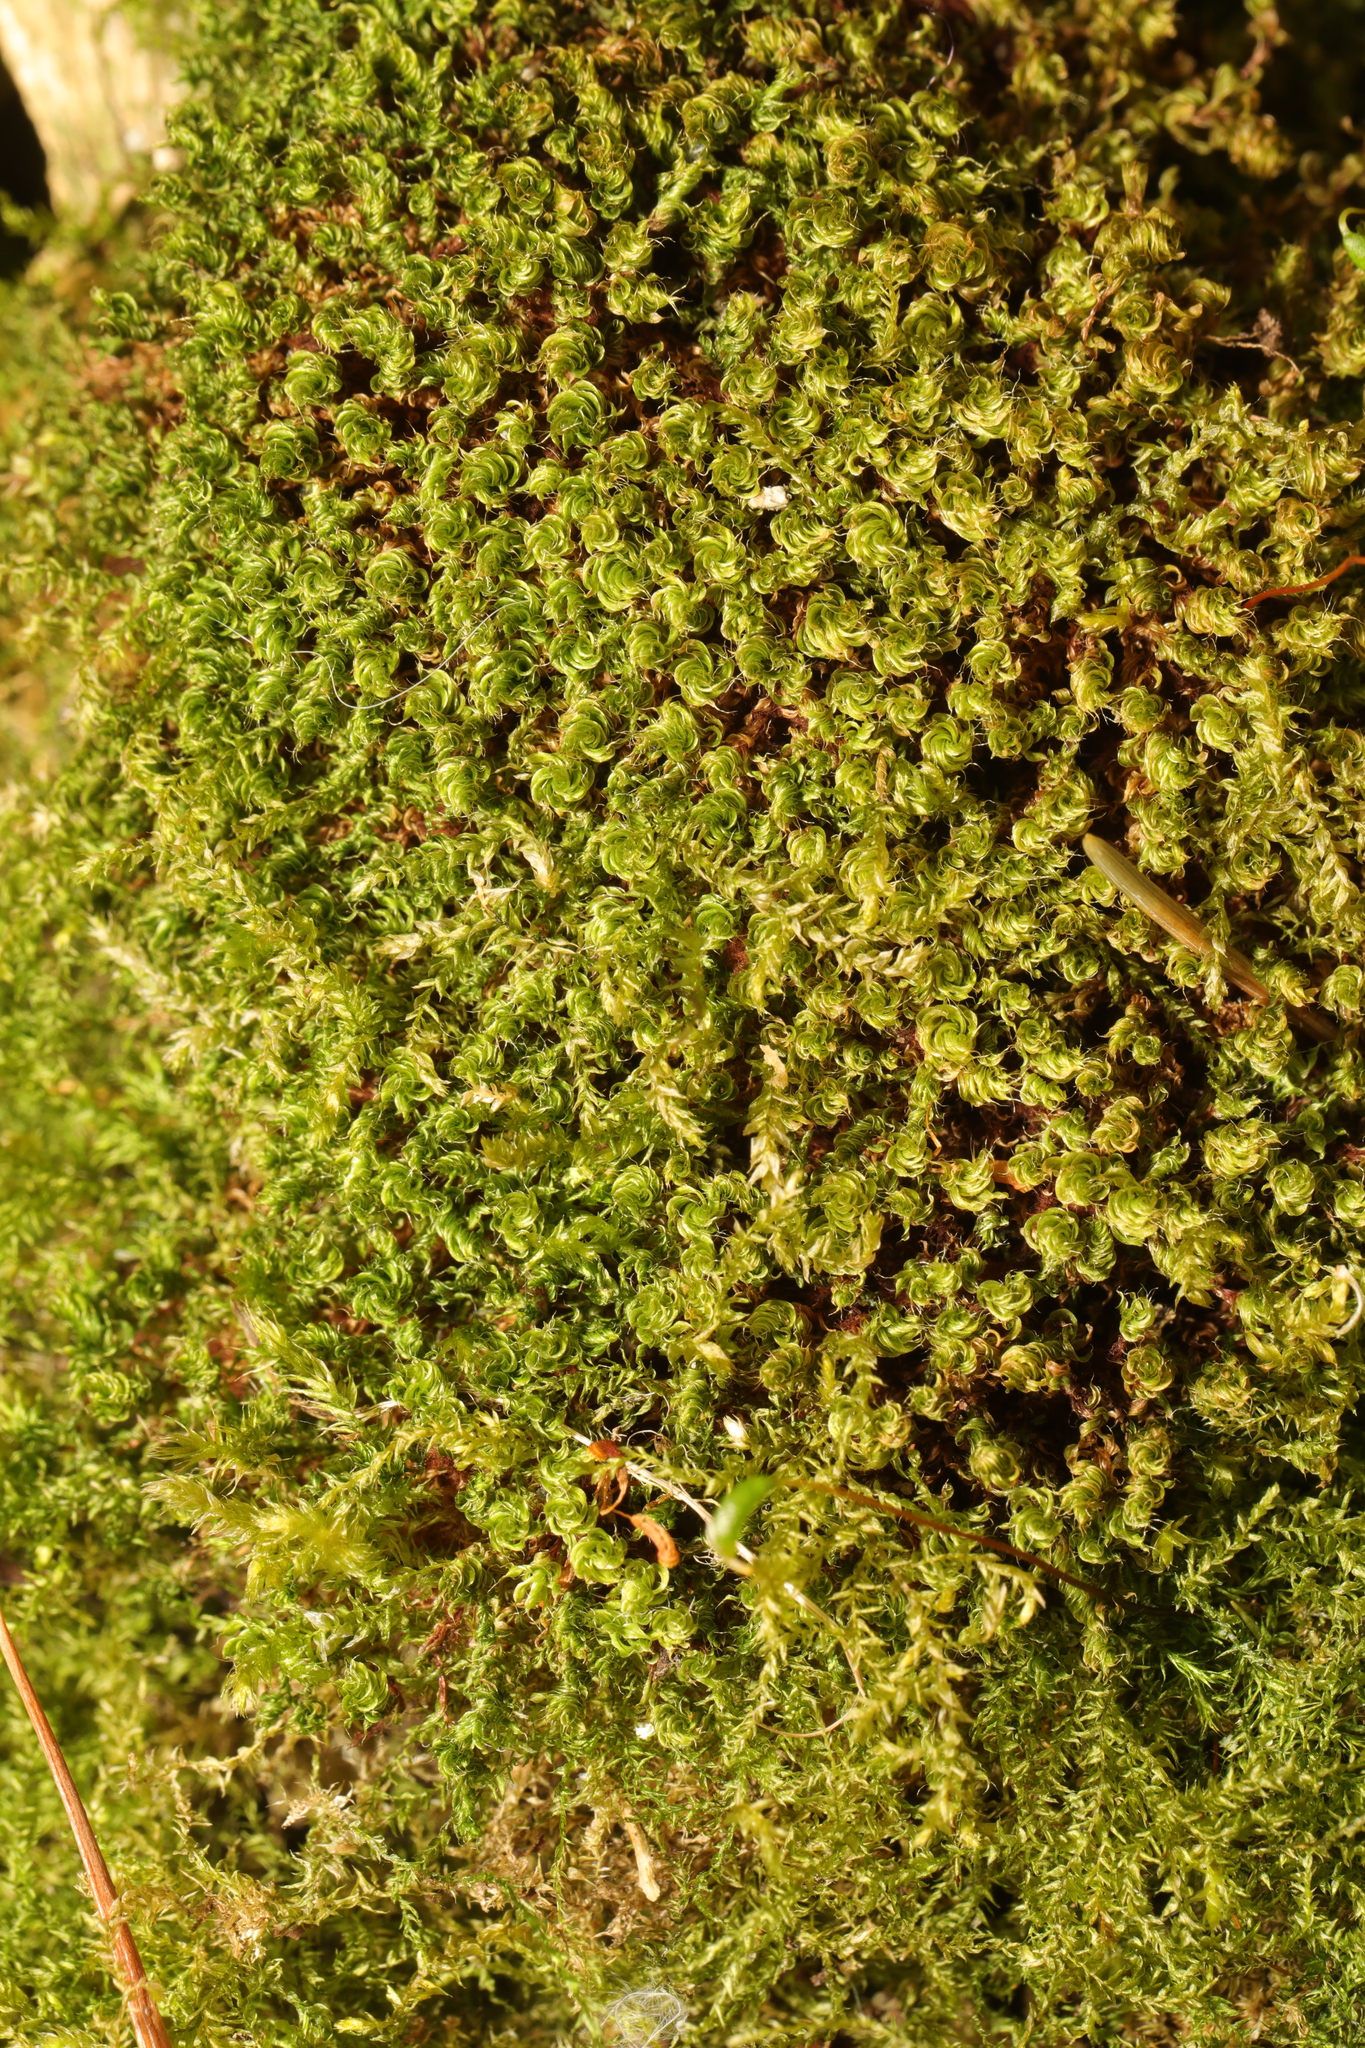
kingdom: Plantae
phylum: Bryophyta
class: Bryopsida
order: Bryales
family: Bryaceae
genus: Rosulabryum
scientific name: Rosulabryum capillare
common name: Capillary thread-moss
